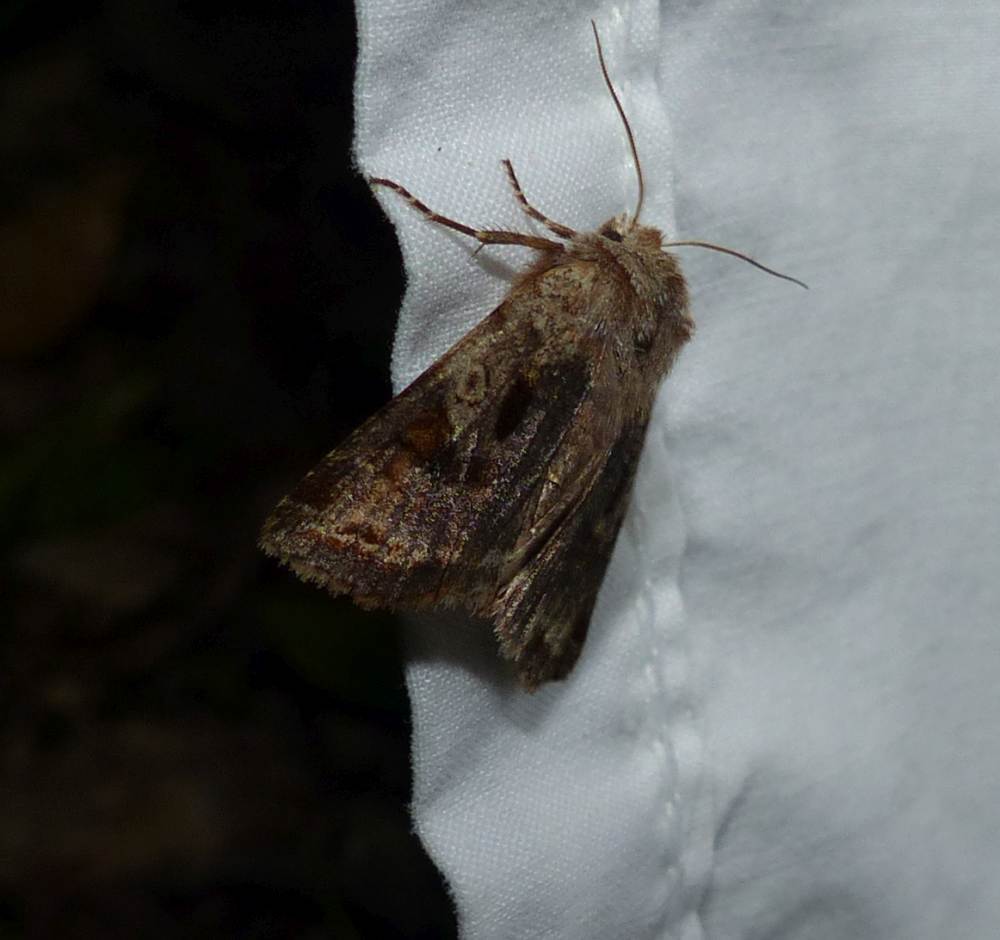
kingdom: Animalia
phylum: Arthropoda
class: Insecta
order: Lepidoptera
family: Noctuidae
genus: Cerastis
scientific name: Cerastis salicarum
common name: Willow dart
